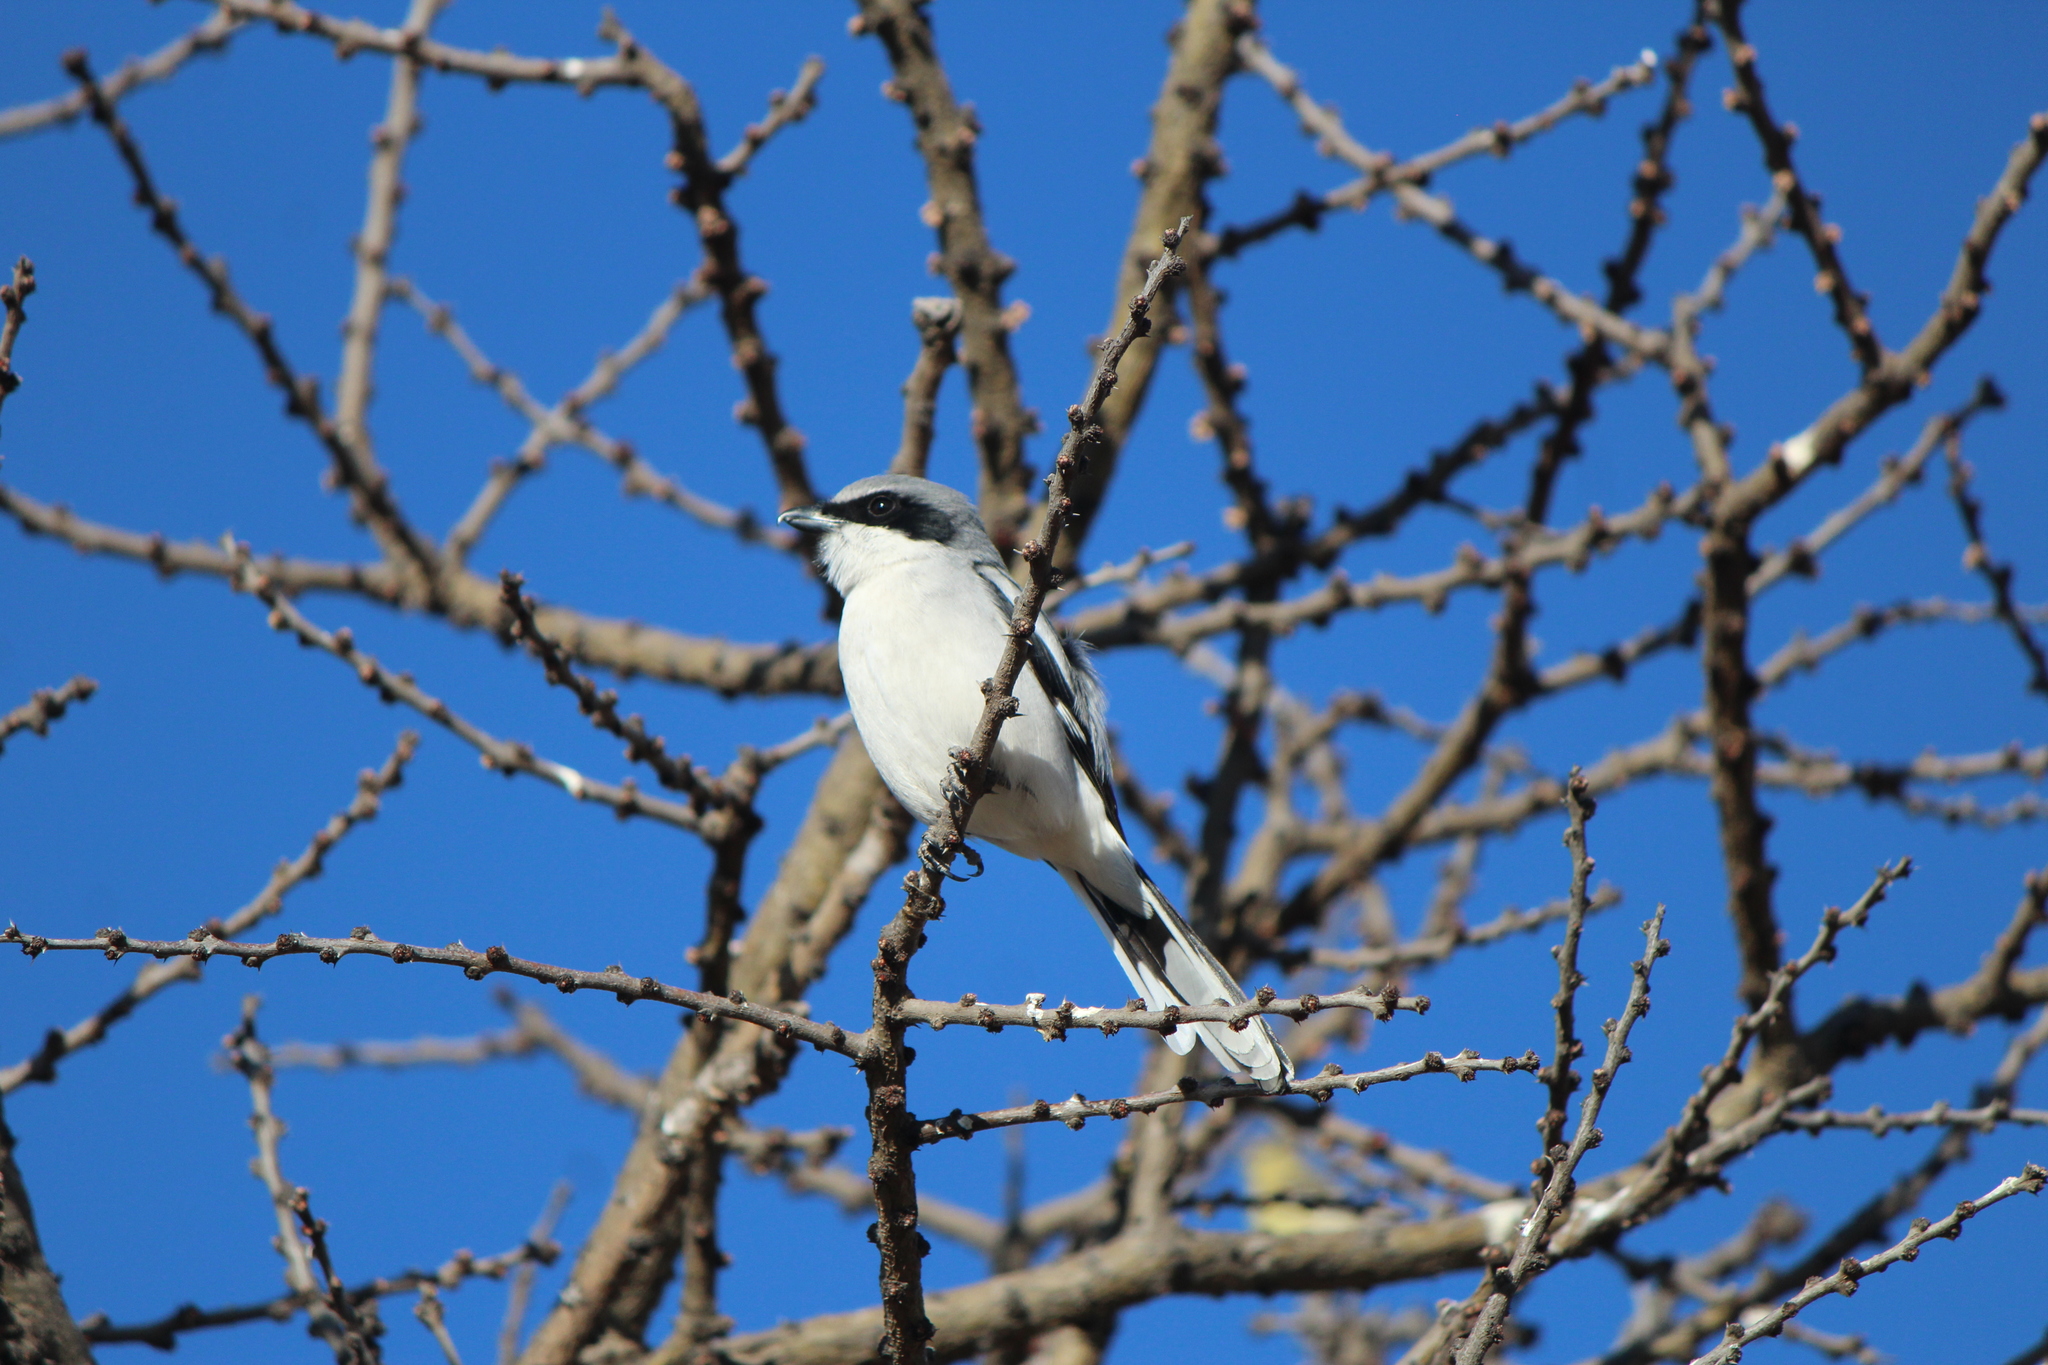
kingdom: Animalia
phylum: Chordata
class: Aves
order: Passeriformes
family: Laniidae
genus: Lanius
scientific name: Lanius ludovicianus
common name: Loggerhead shrike
